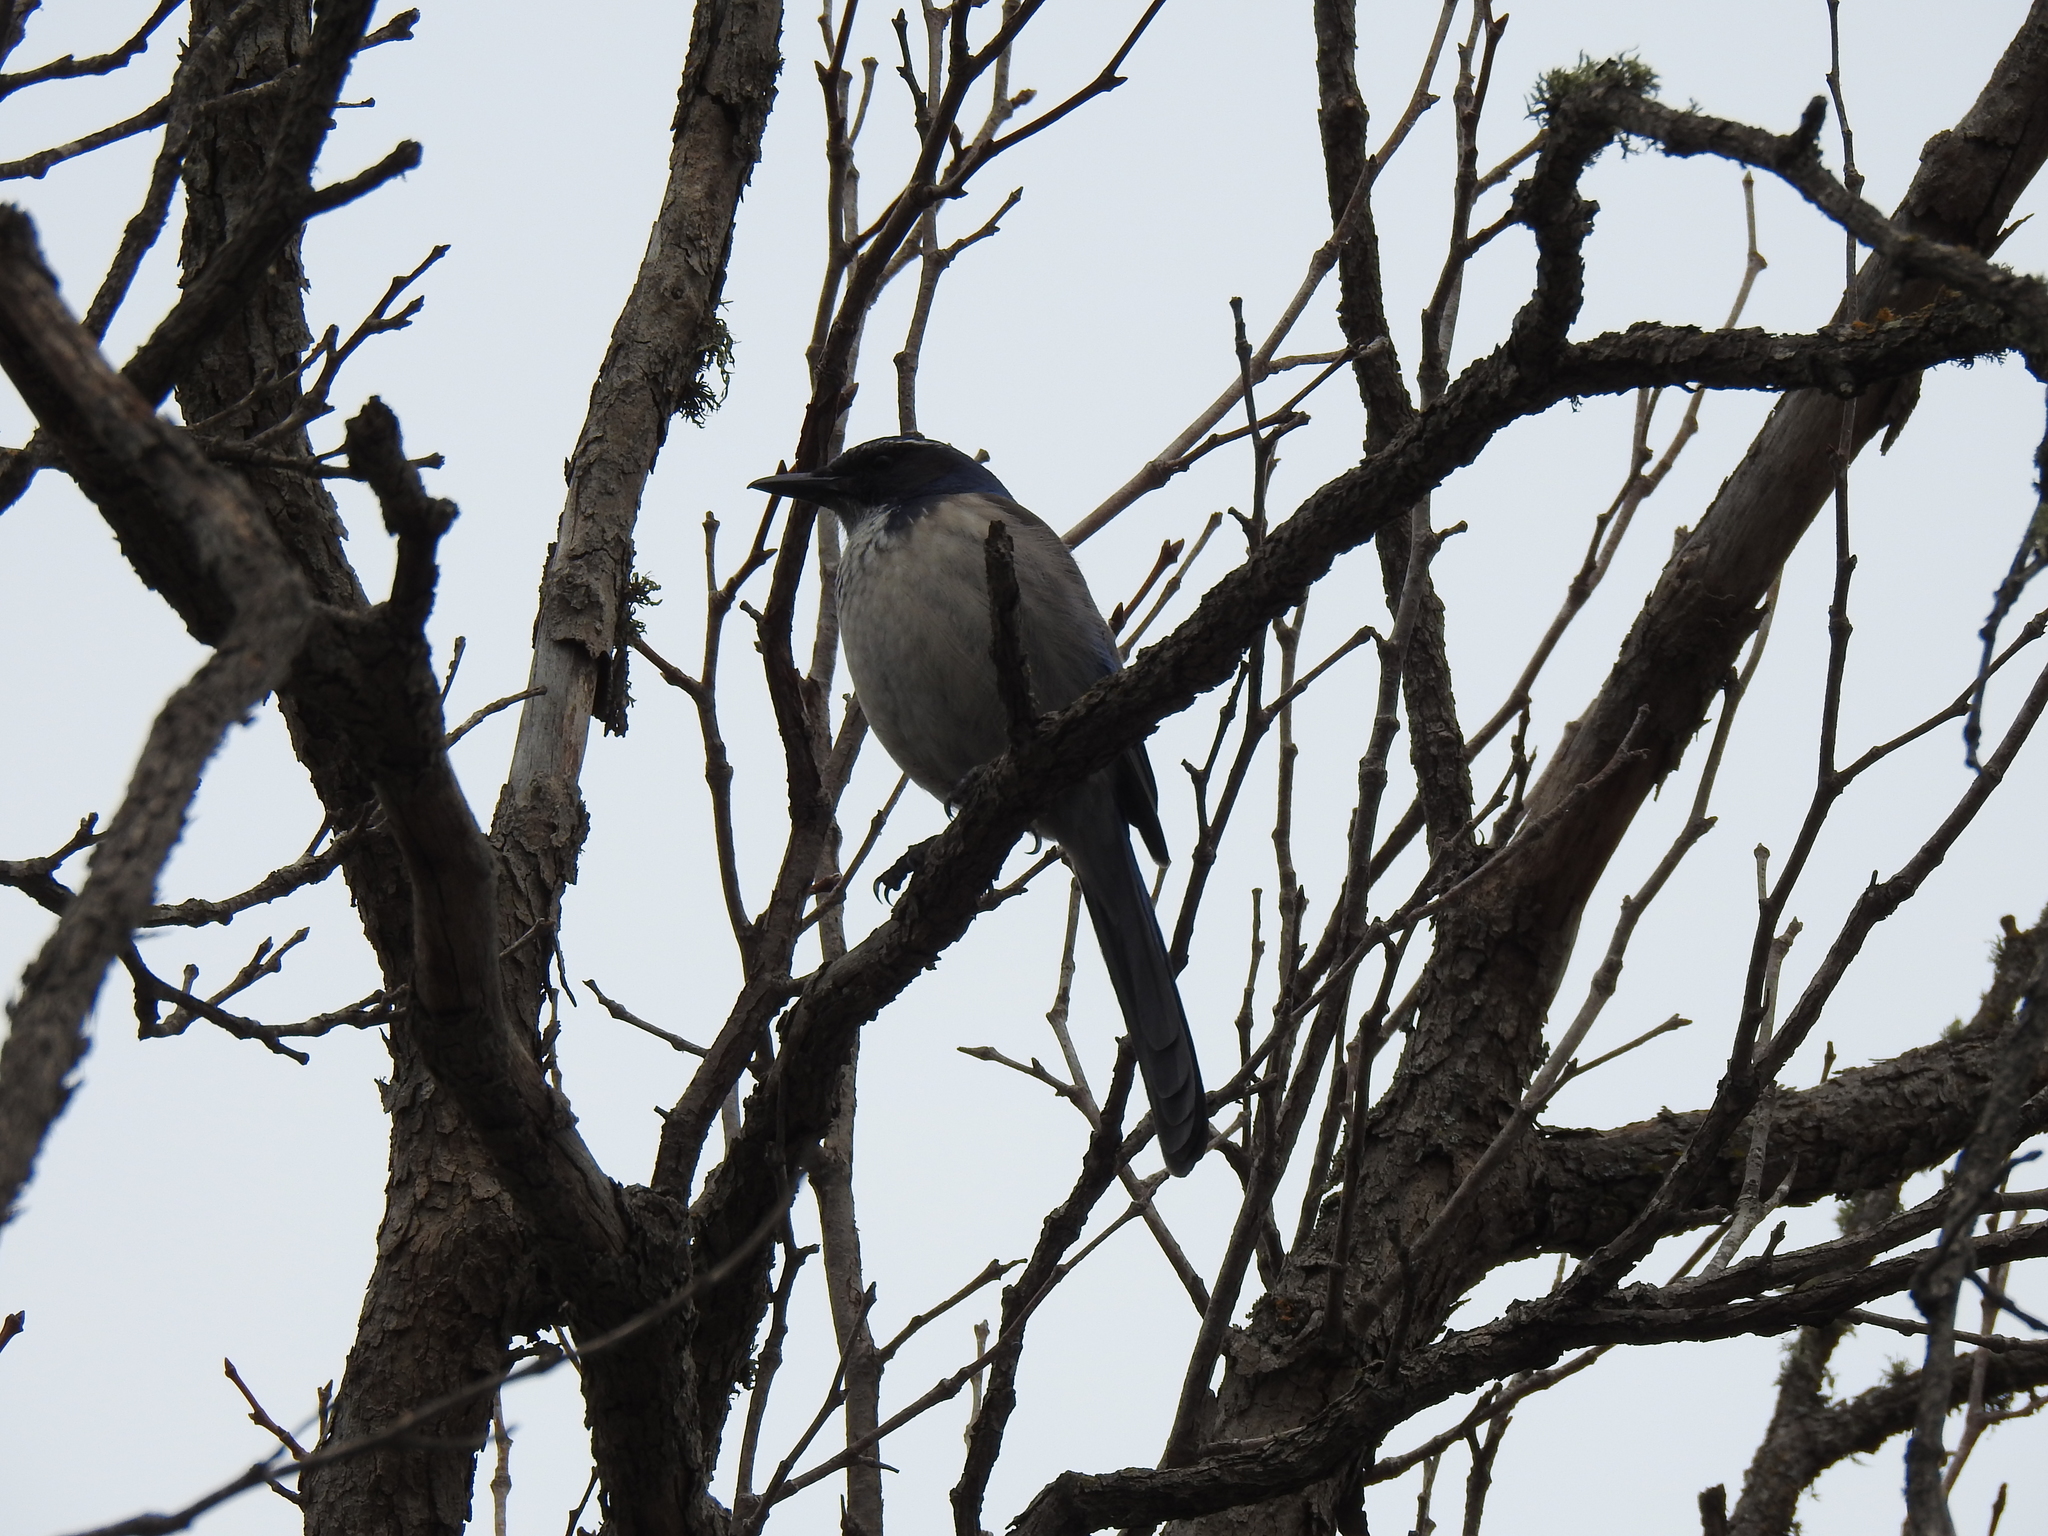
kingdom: Animalia
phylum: Chordata
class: Aves
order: Passeriformes
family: Corvidae
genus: Aphelocoma
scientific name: Aphelocoma californica
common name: California scrub-jay
